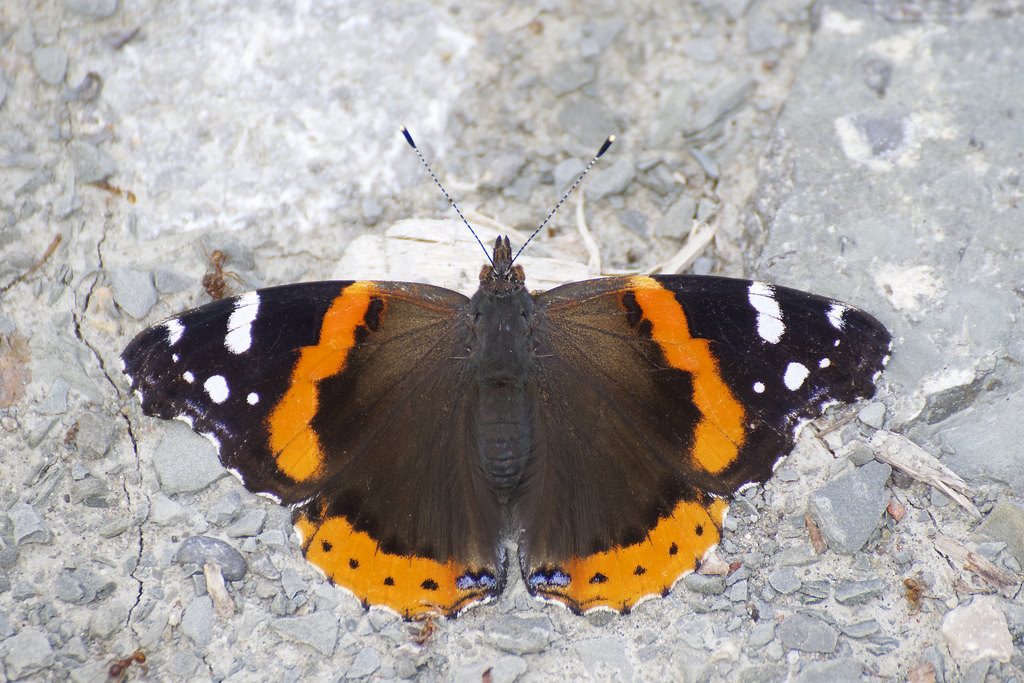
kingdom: Animalia
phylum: Arthropoda
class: Insecta
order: Lepidoptera
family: Nymphalidae
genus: Vanessa
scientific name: Vanessa atalanta
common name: Red admiral
